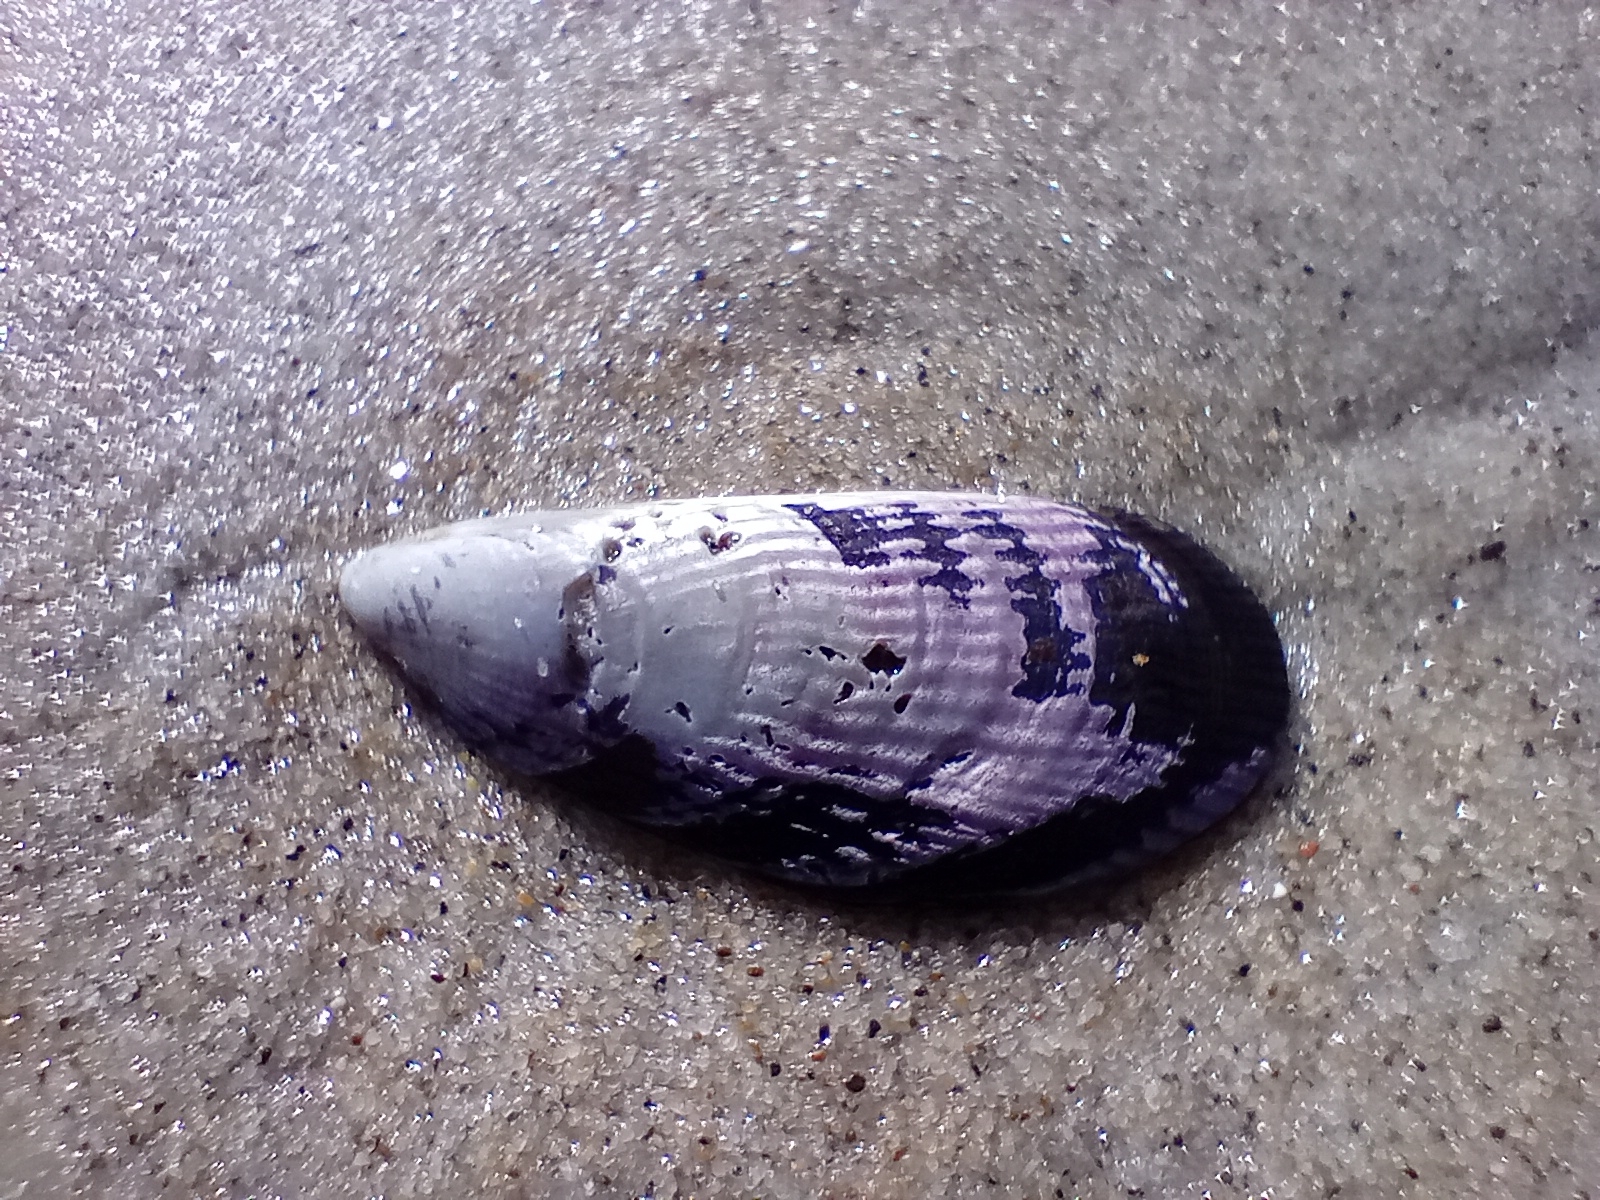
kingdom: Animalia
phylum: Mollusca
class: Bivalvia
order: Mytilida
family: Mytilidae
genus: Aulacomya
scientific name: Aulacomya maoriana
